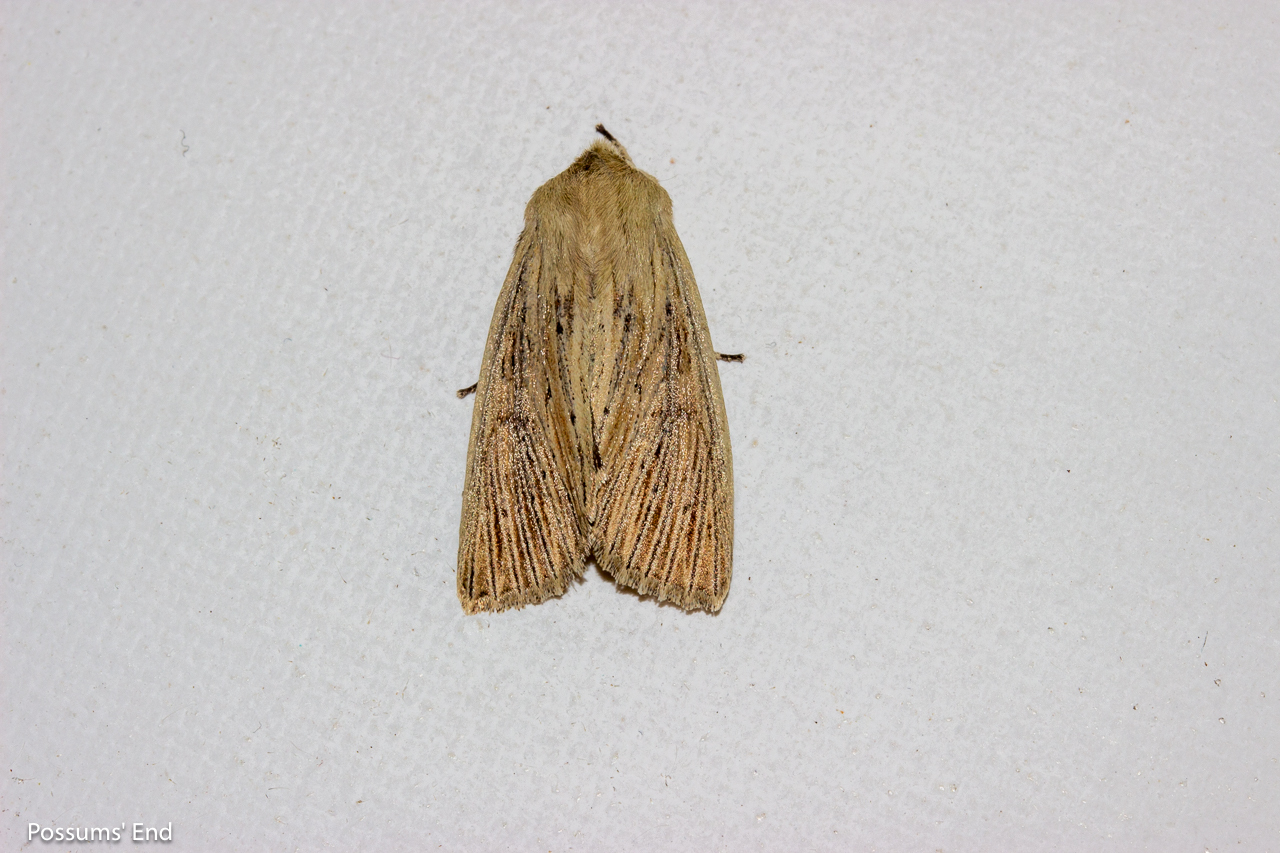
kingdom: Animalia
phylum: Arthropoda
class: Insecta
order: Lepidoptera
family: Noctuidae
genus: Ichneutica
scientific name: Ichneutica arotis
